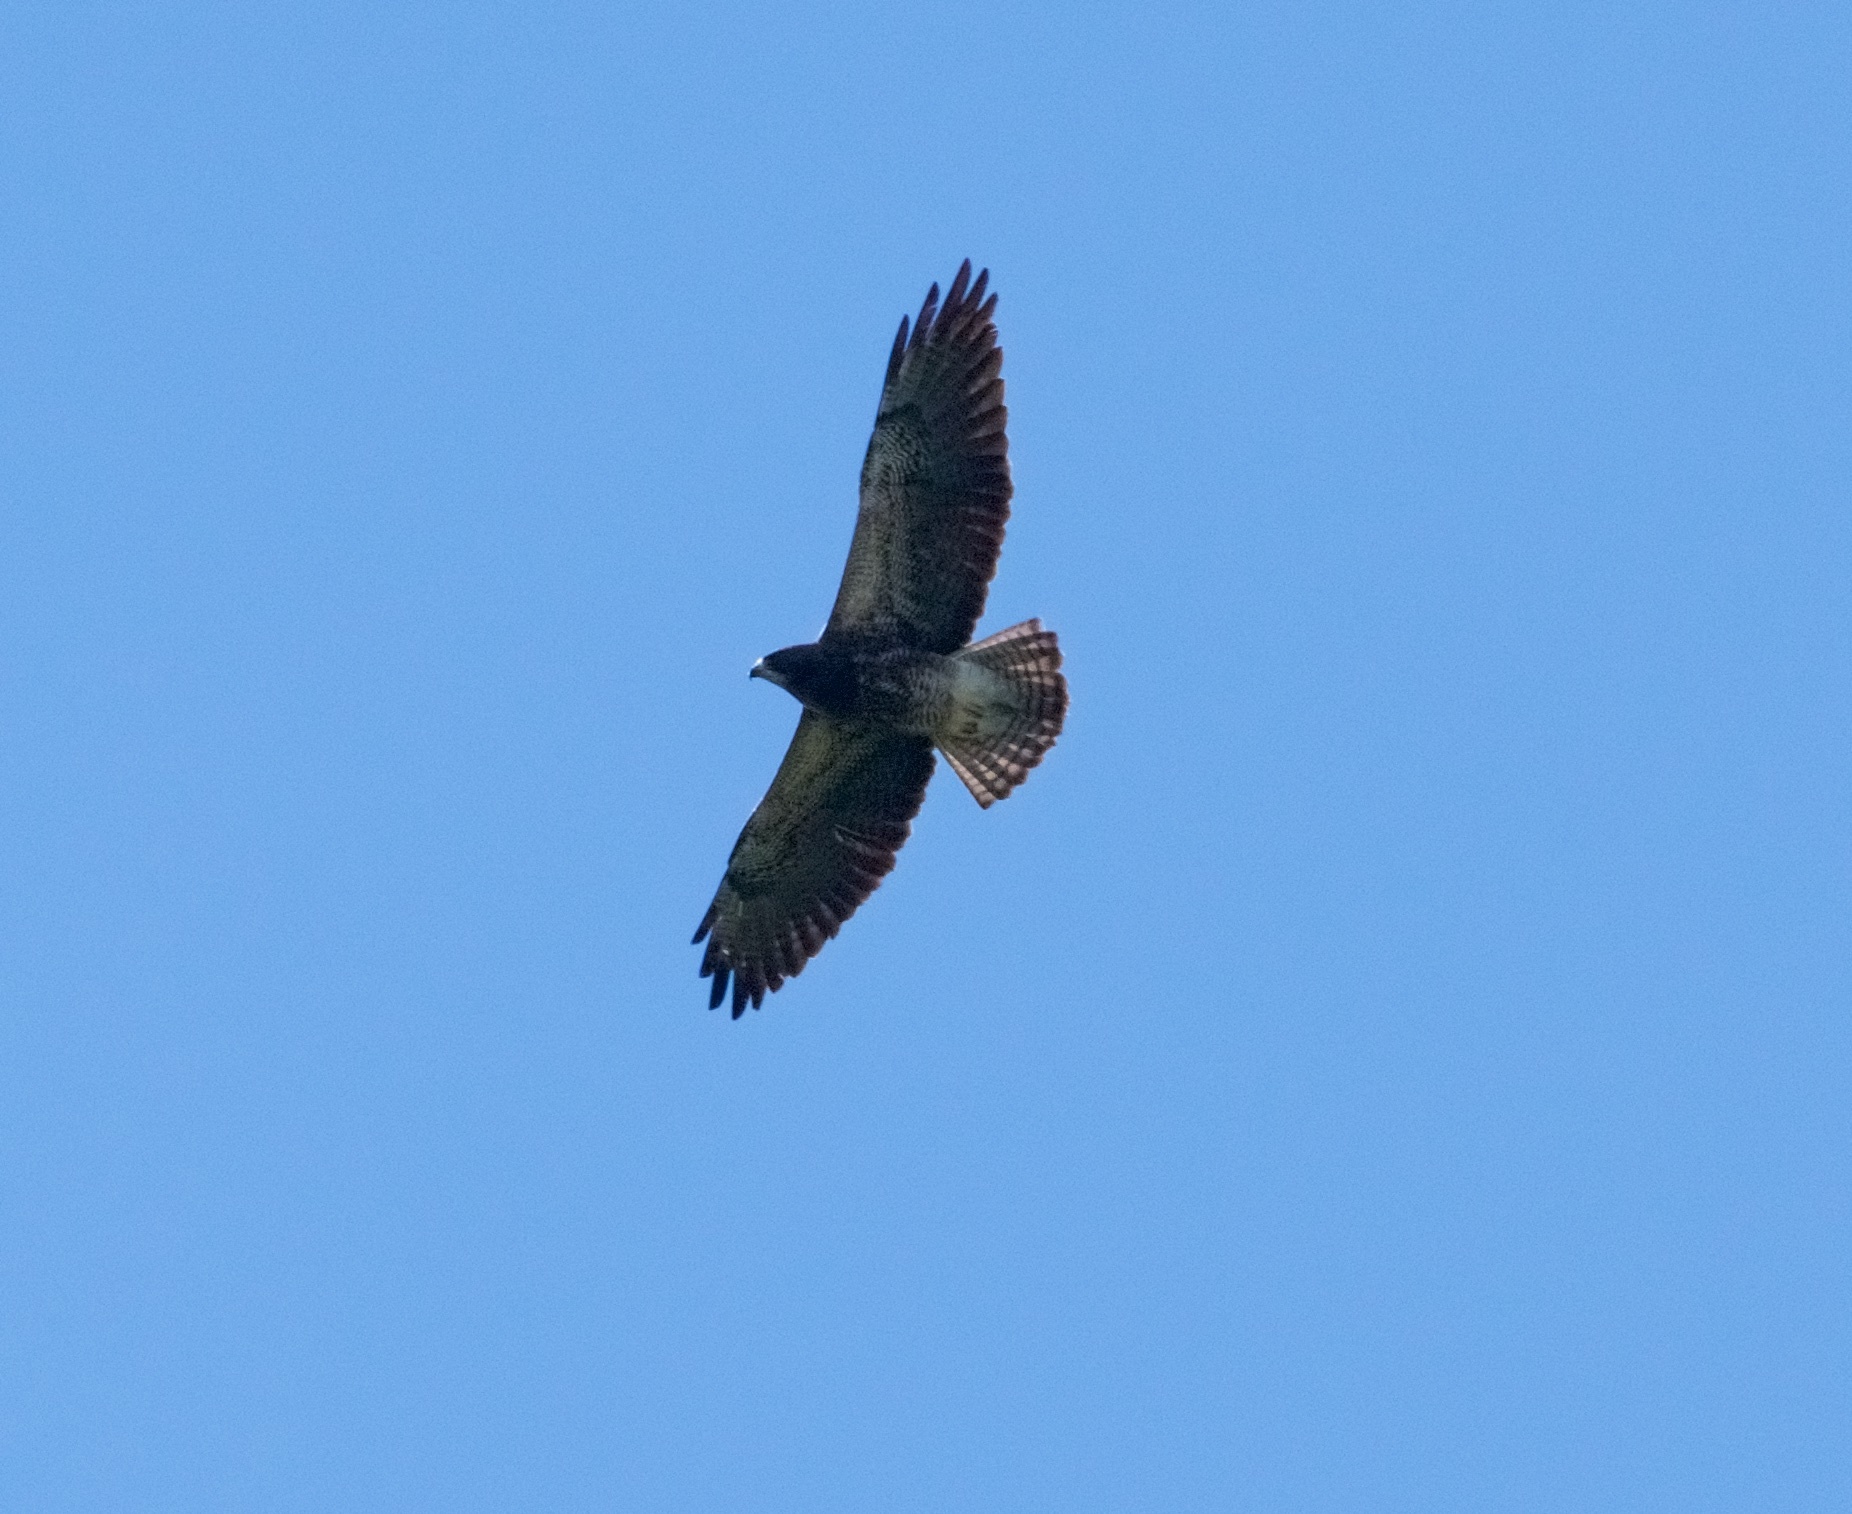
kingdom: Animalia
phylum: Chordata
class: Aves
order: Accipitriformes
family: Accipitridae
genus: Buteo
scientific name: Buteo swainsoni
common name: Swainson's hawk
